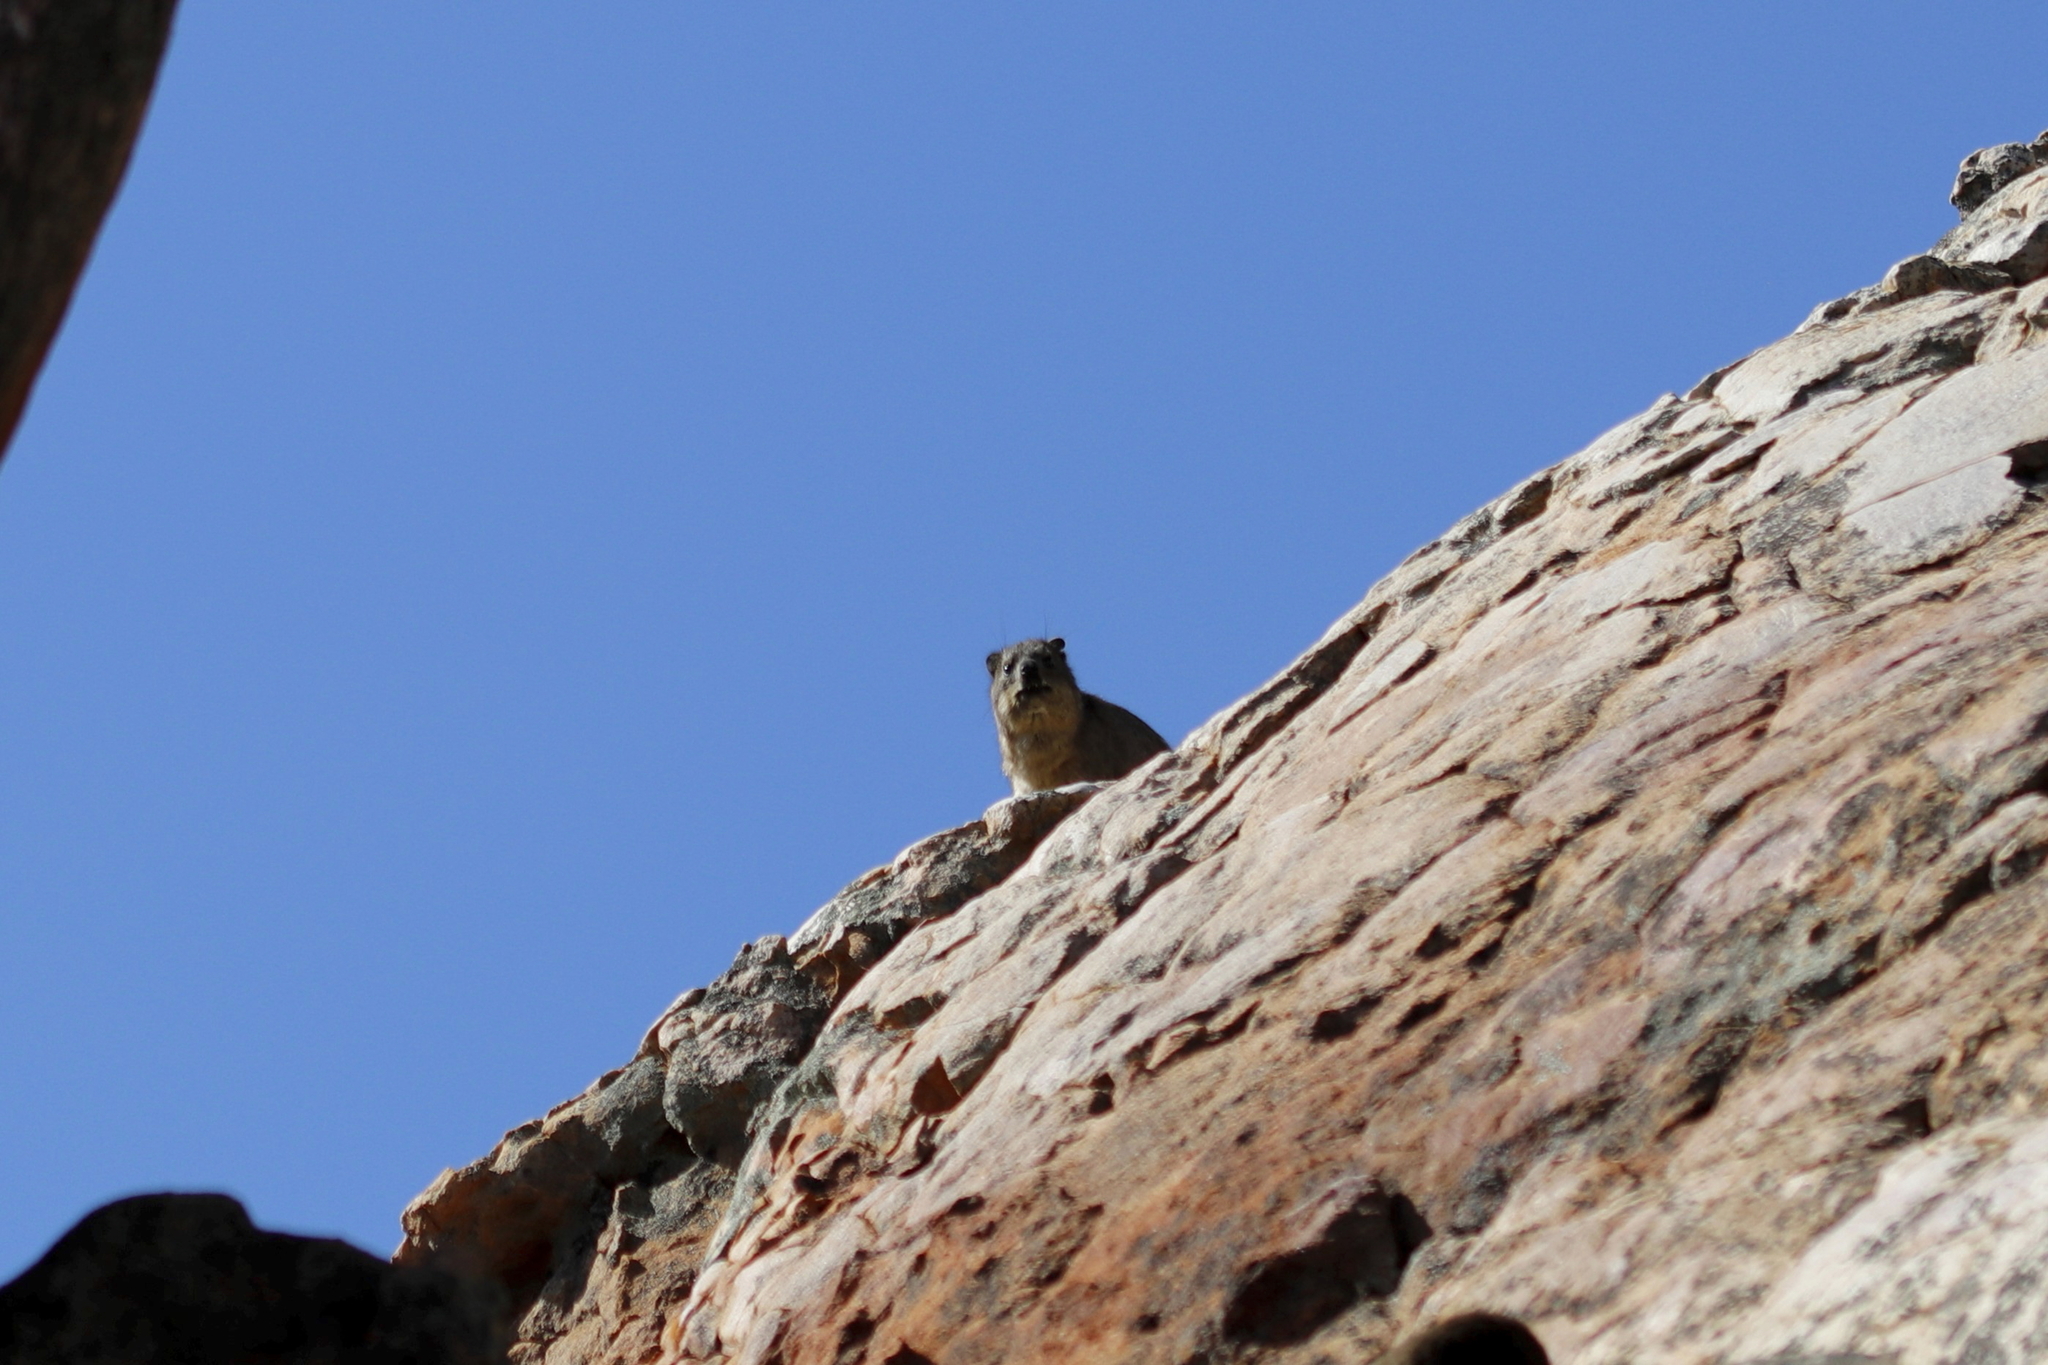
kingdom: Animalia
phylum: Chordata
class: Mammalia
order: Hyracoidea
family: Procaviidae
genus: Procavia
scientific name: Procavia capensis
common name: Rock hyrax
